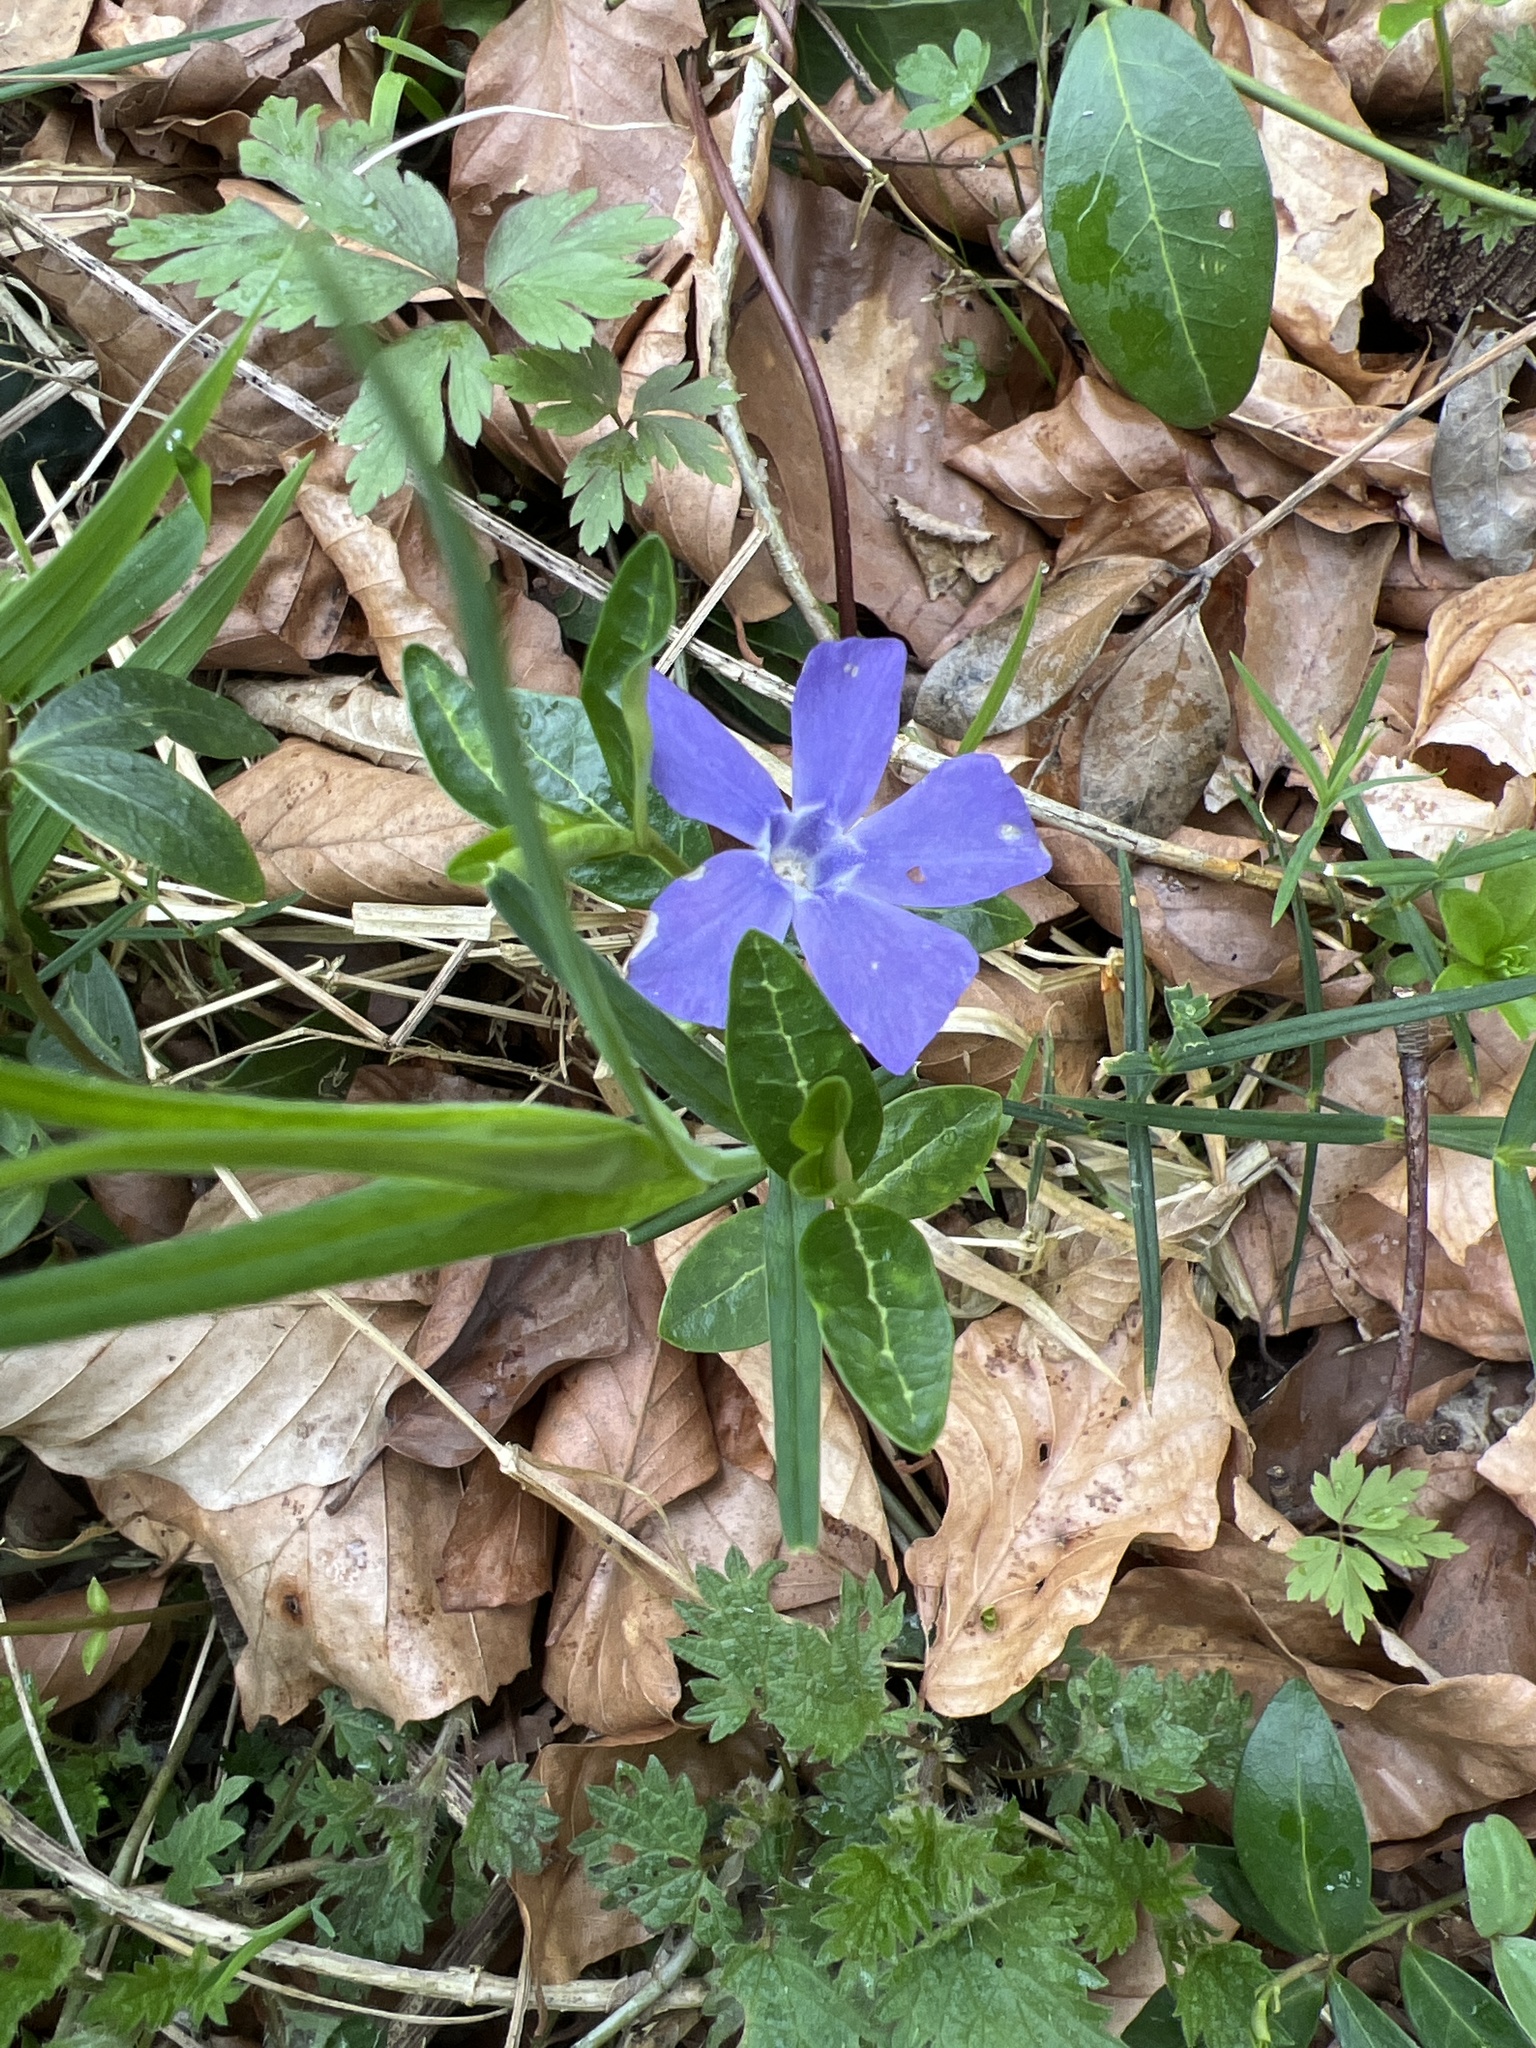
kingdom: Plantae
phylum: Tracheophyta
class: Magnoliopsida
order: Gentianales
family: Apocynaceae
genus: Vinca
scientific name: Vinca minor
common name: Lesser periwinkle
